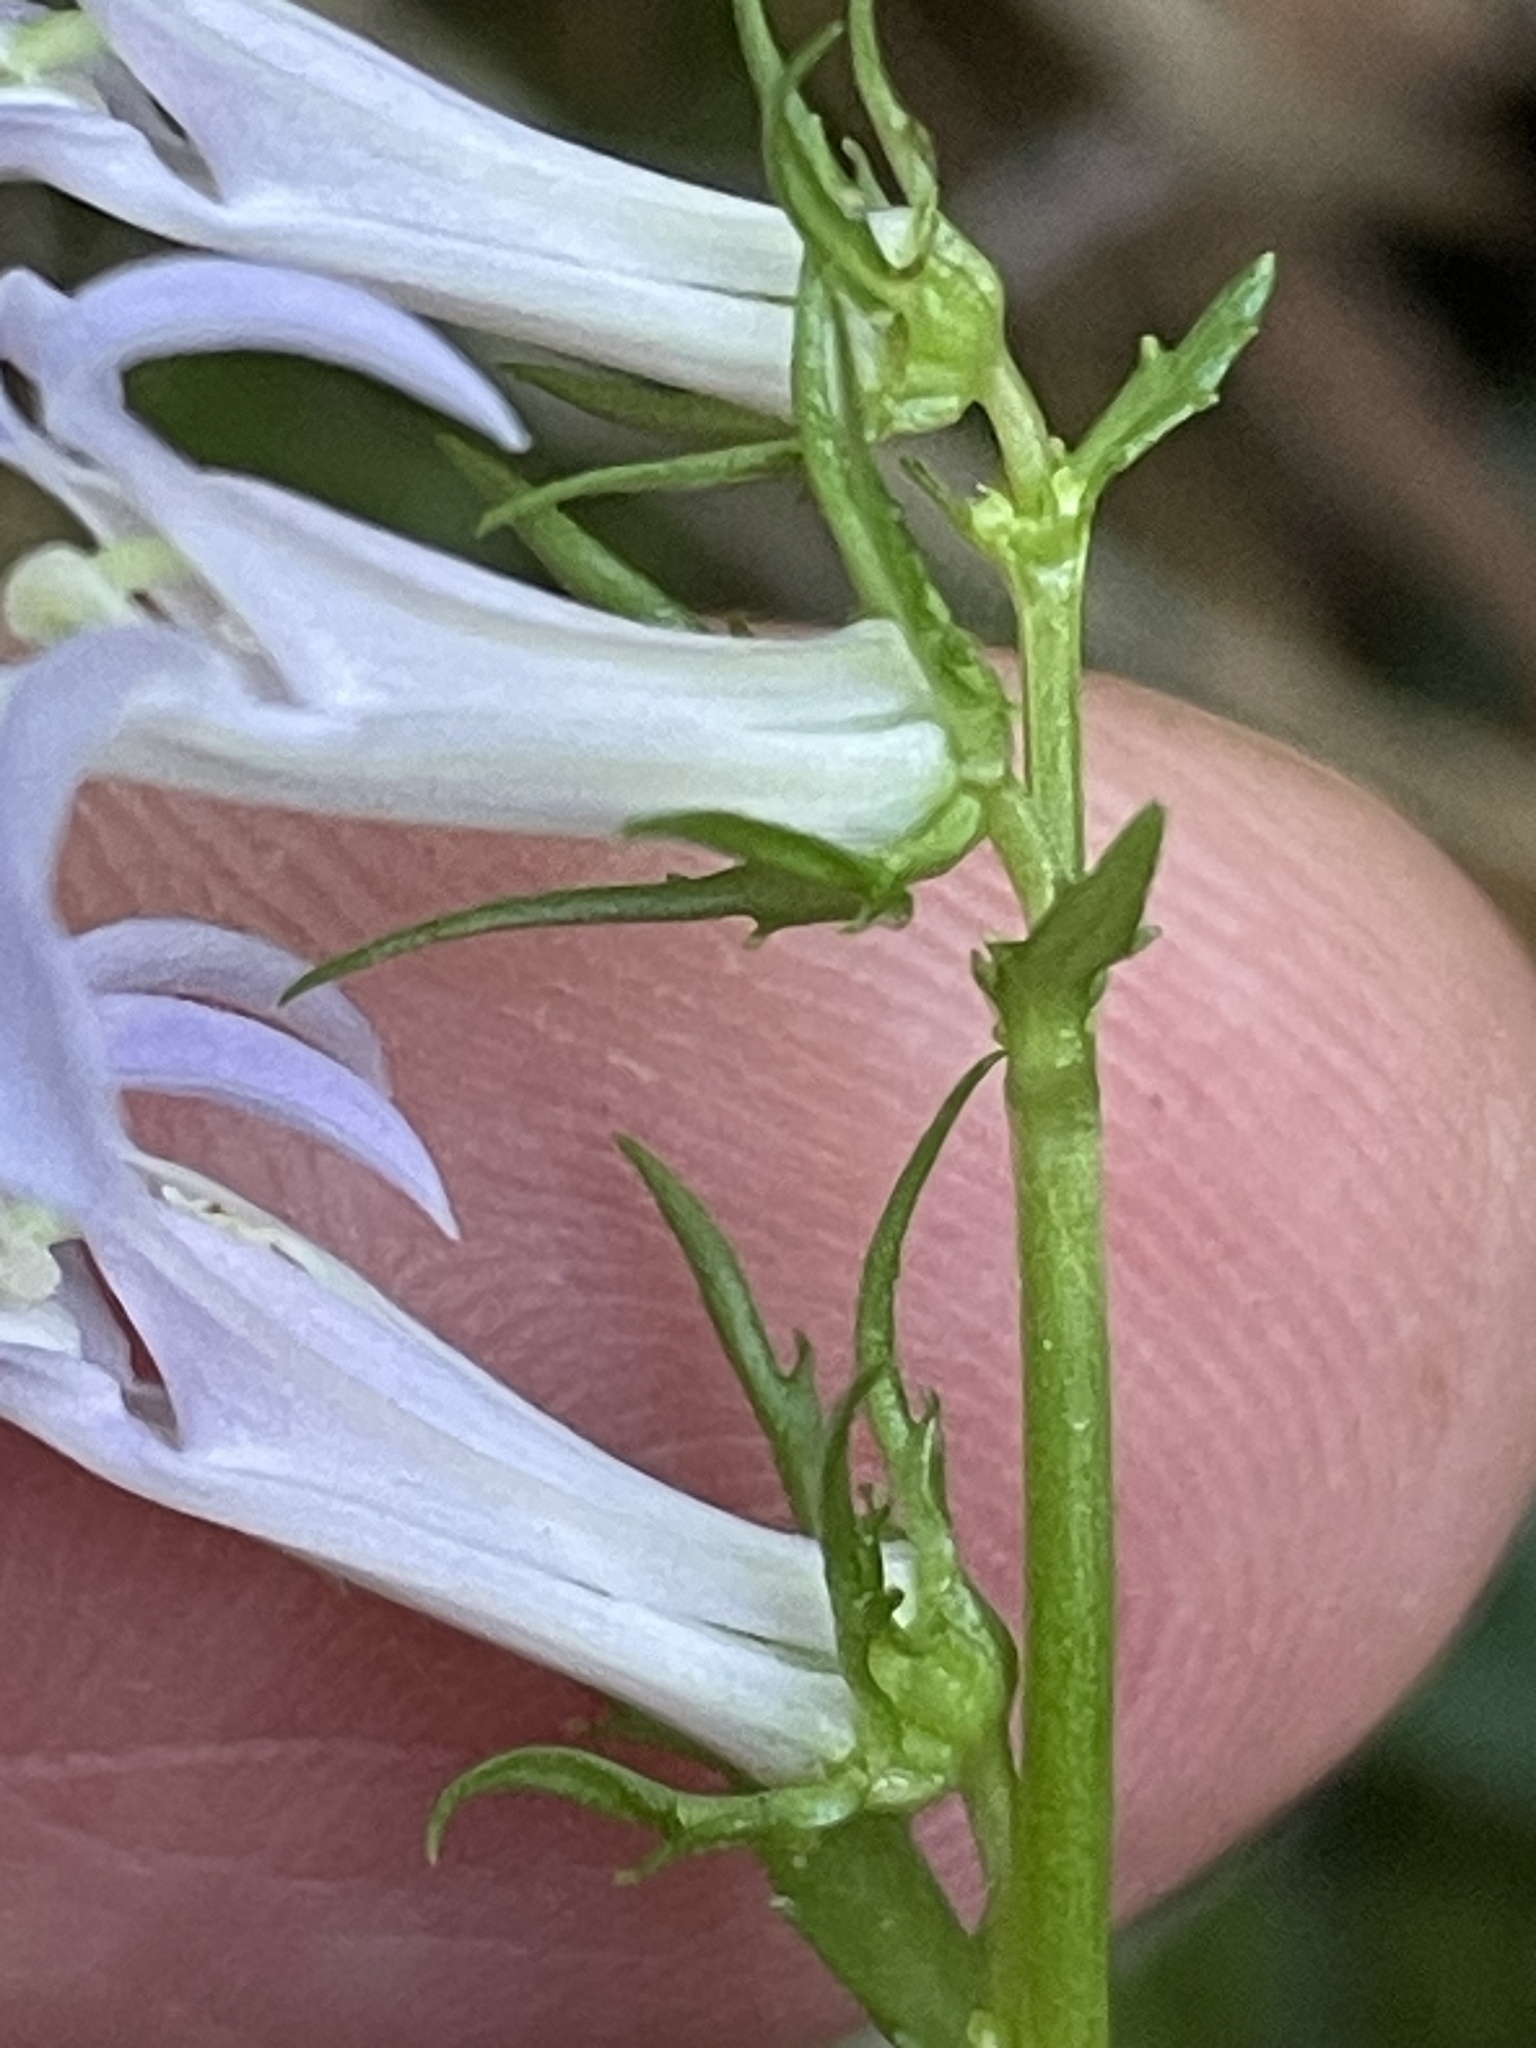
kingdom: Plantae
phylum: Tracheophyta
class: Magnoliopsida
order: Asterales
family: Campanulaceae
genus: Lobelia
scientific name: Lobelia georgiana
